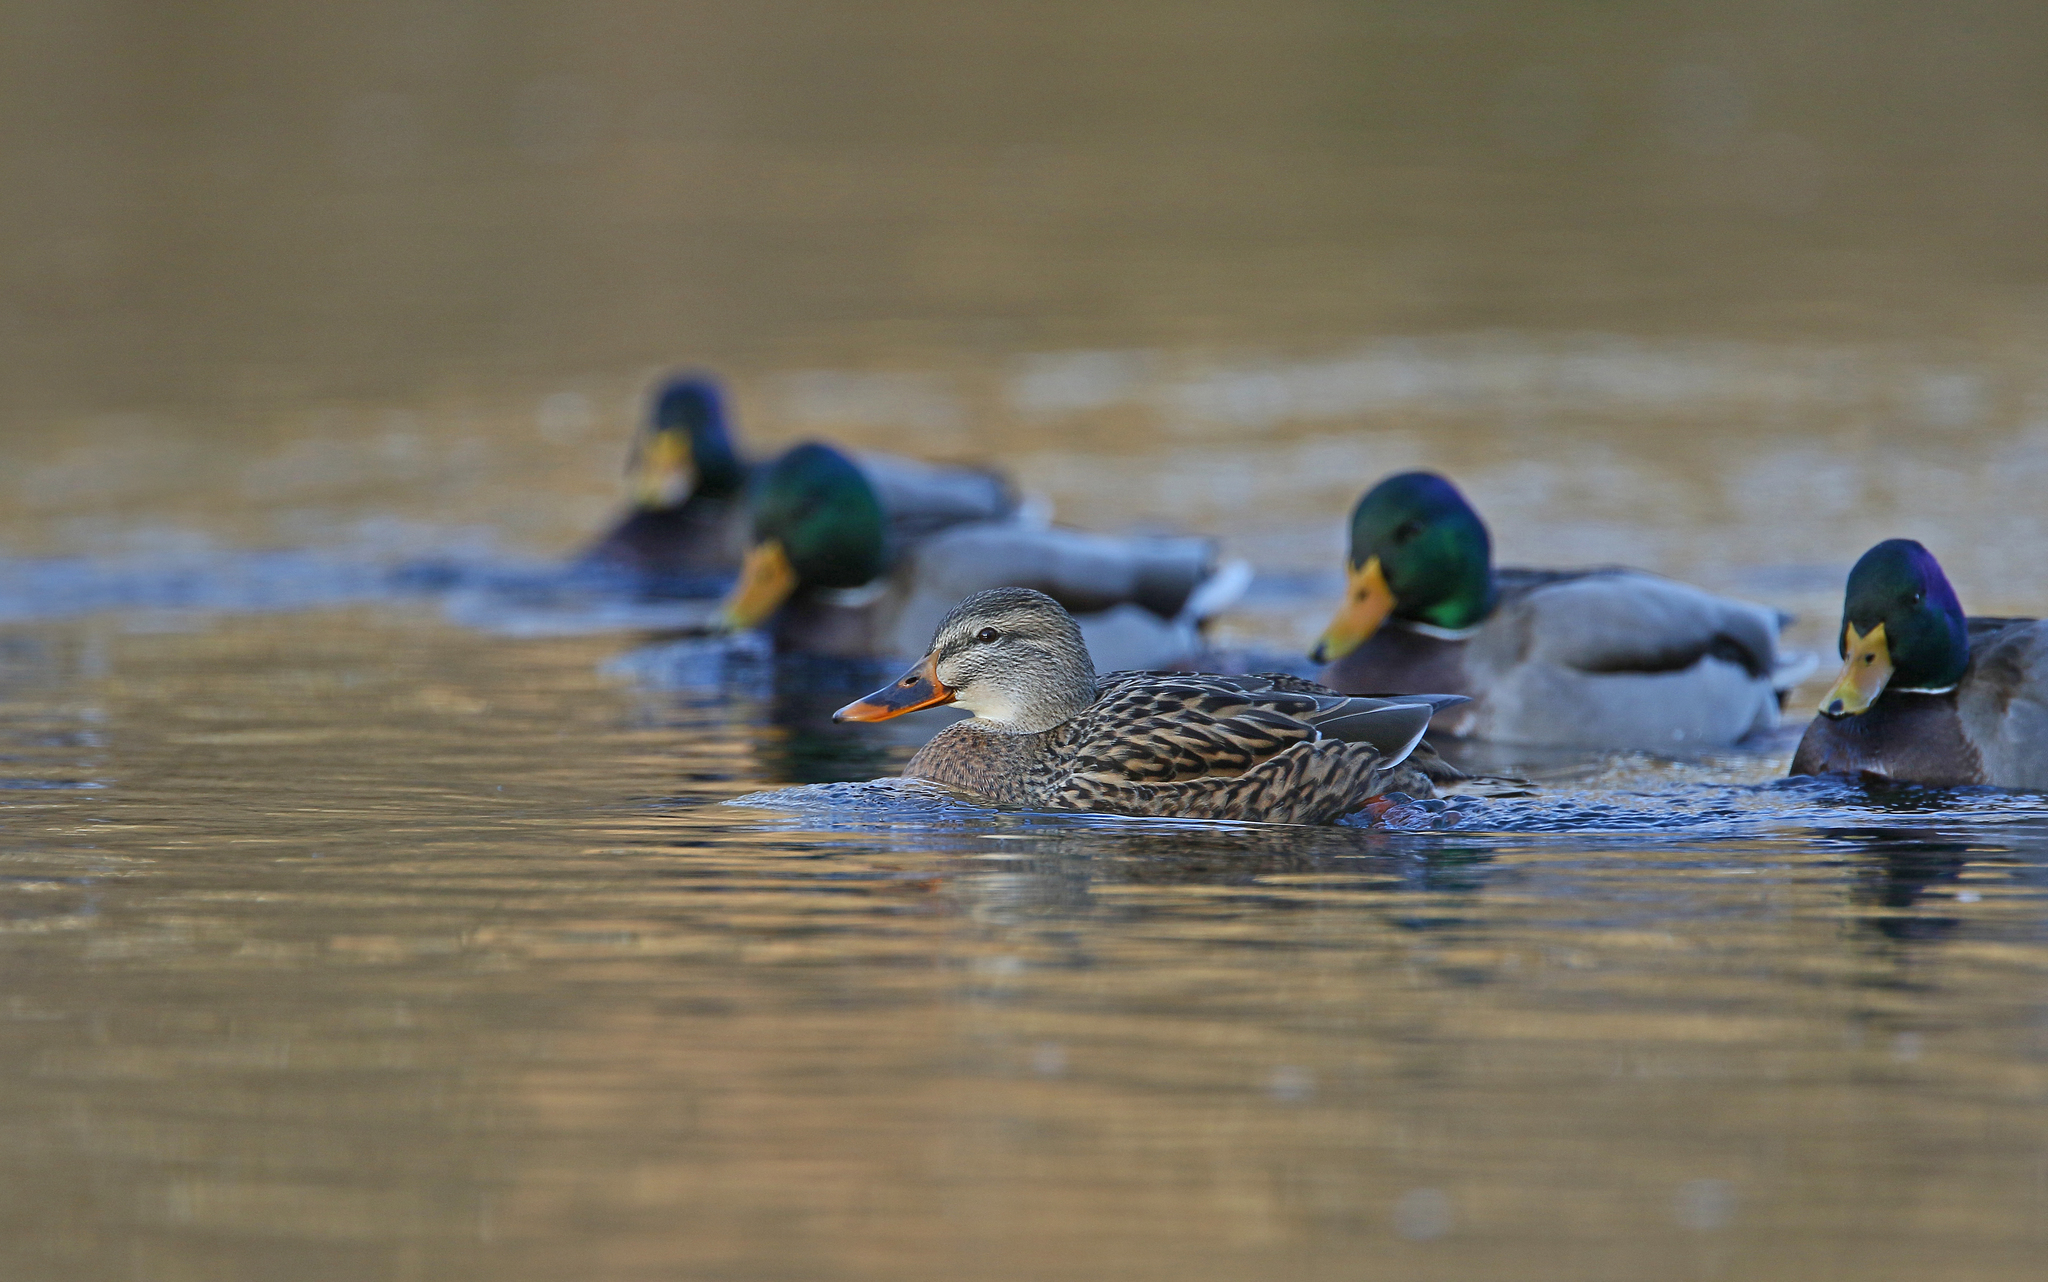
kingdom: Animalia
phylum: Chordata
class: Aves
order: Anseriformes
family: Anatidae
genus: Anas
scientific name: Anas platyrhynchos
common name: Mallard
